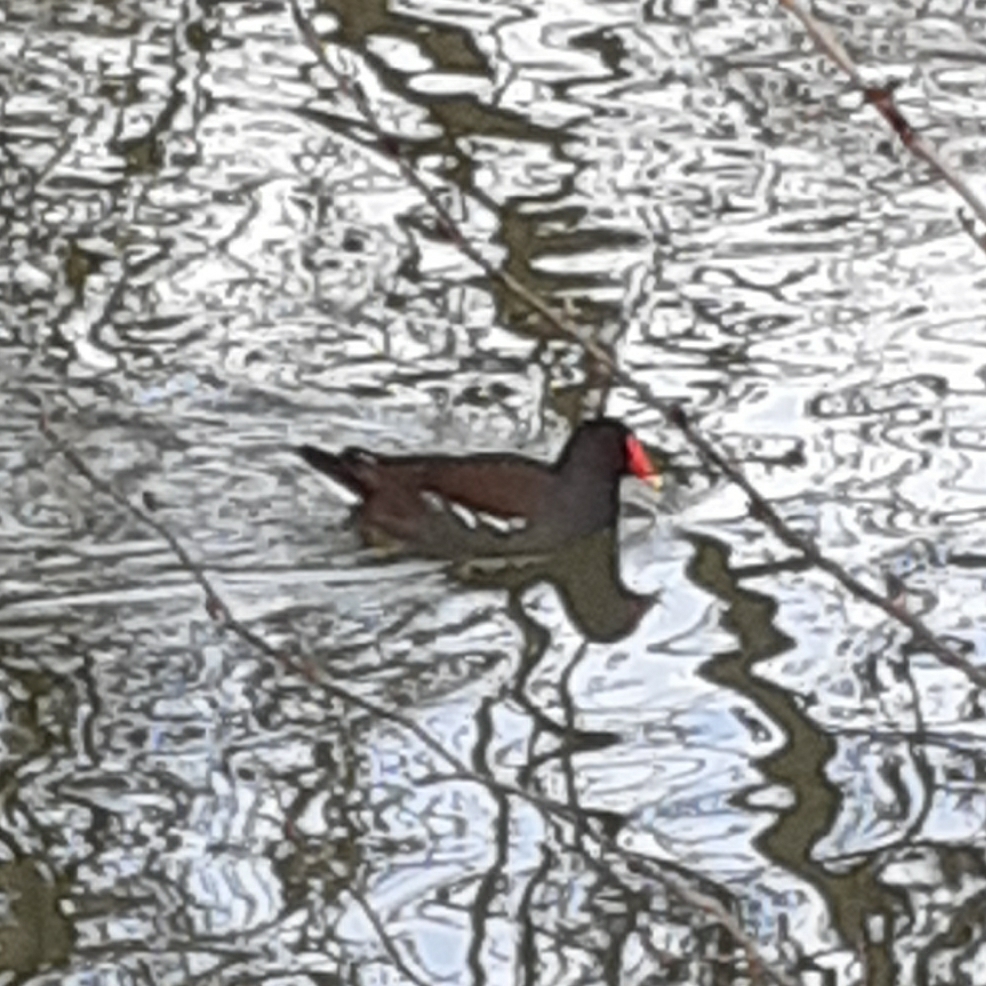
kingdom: Animalia
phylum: Chordata
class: Aves
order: Gruiformes
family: Rallidae
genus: Gallinula
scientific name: Gallinula chloropus
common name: Common moorhen
